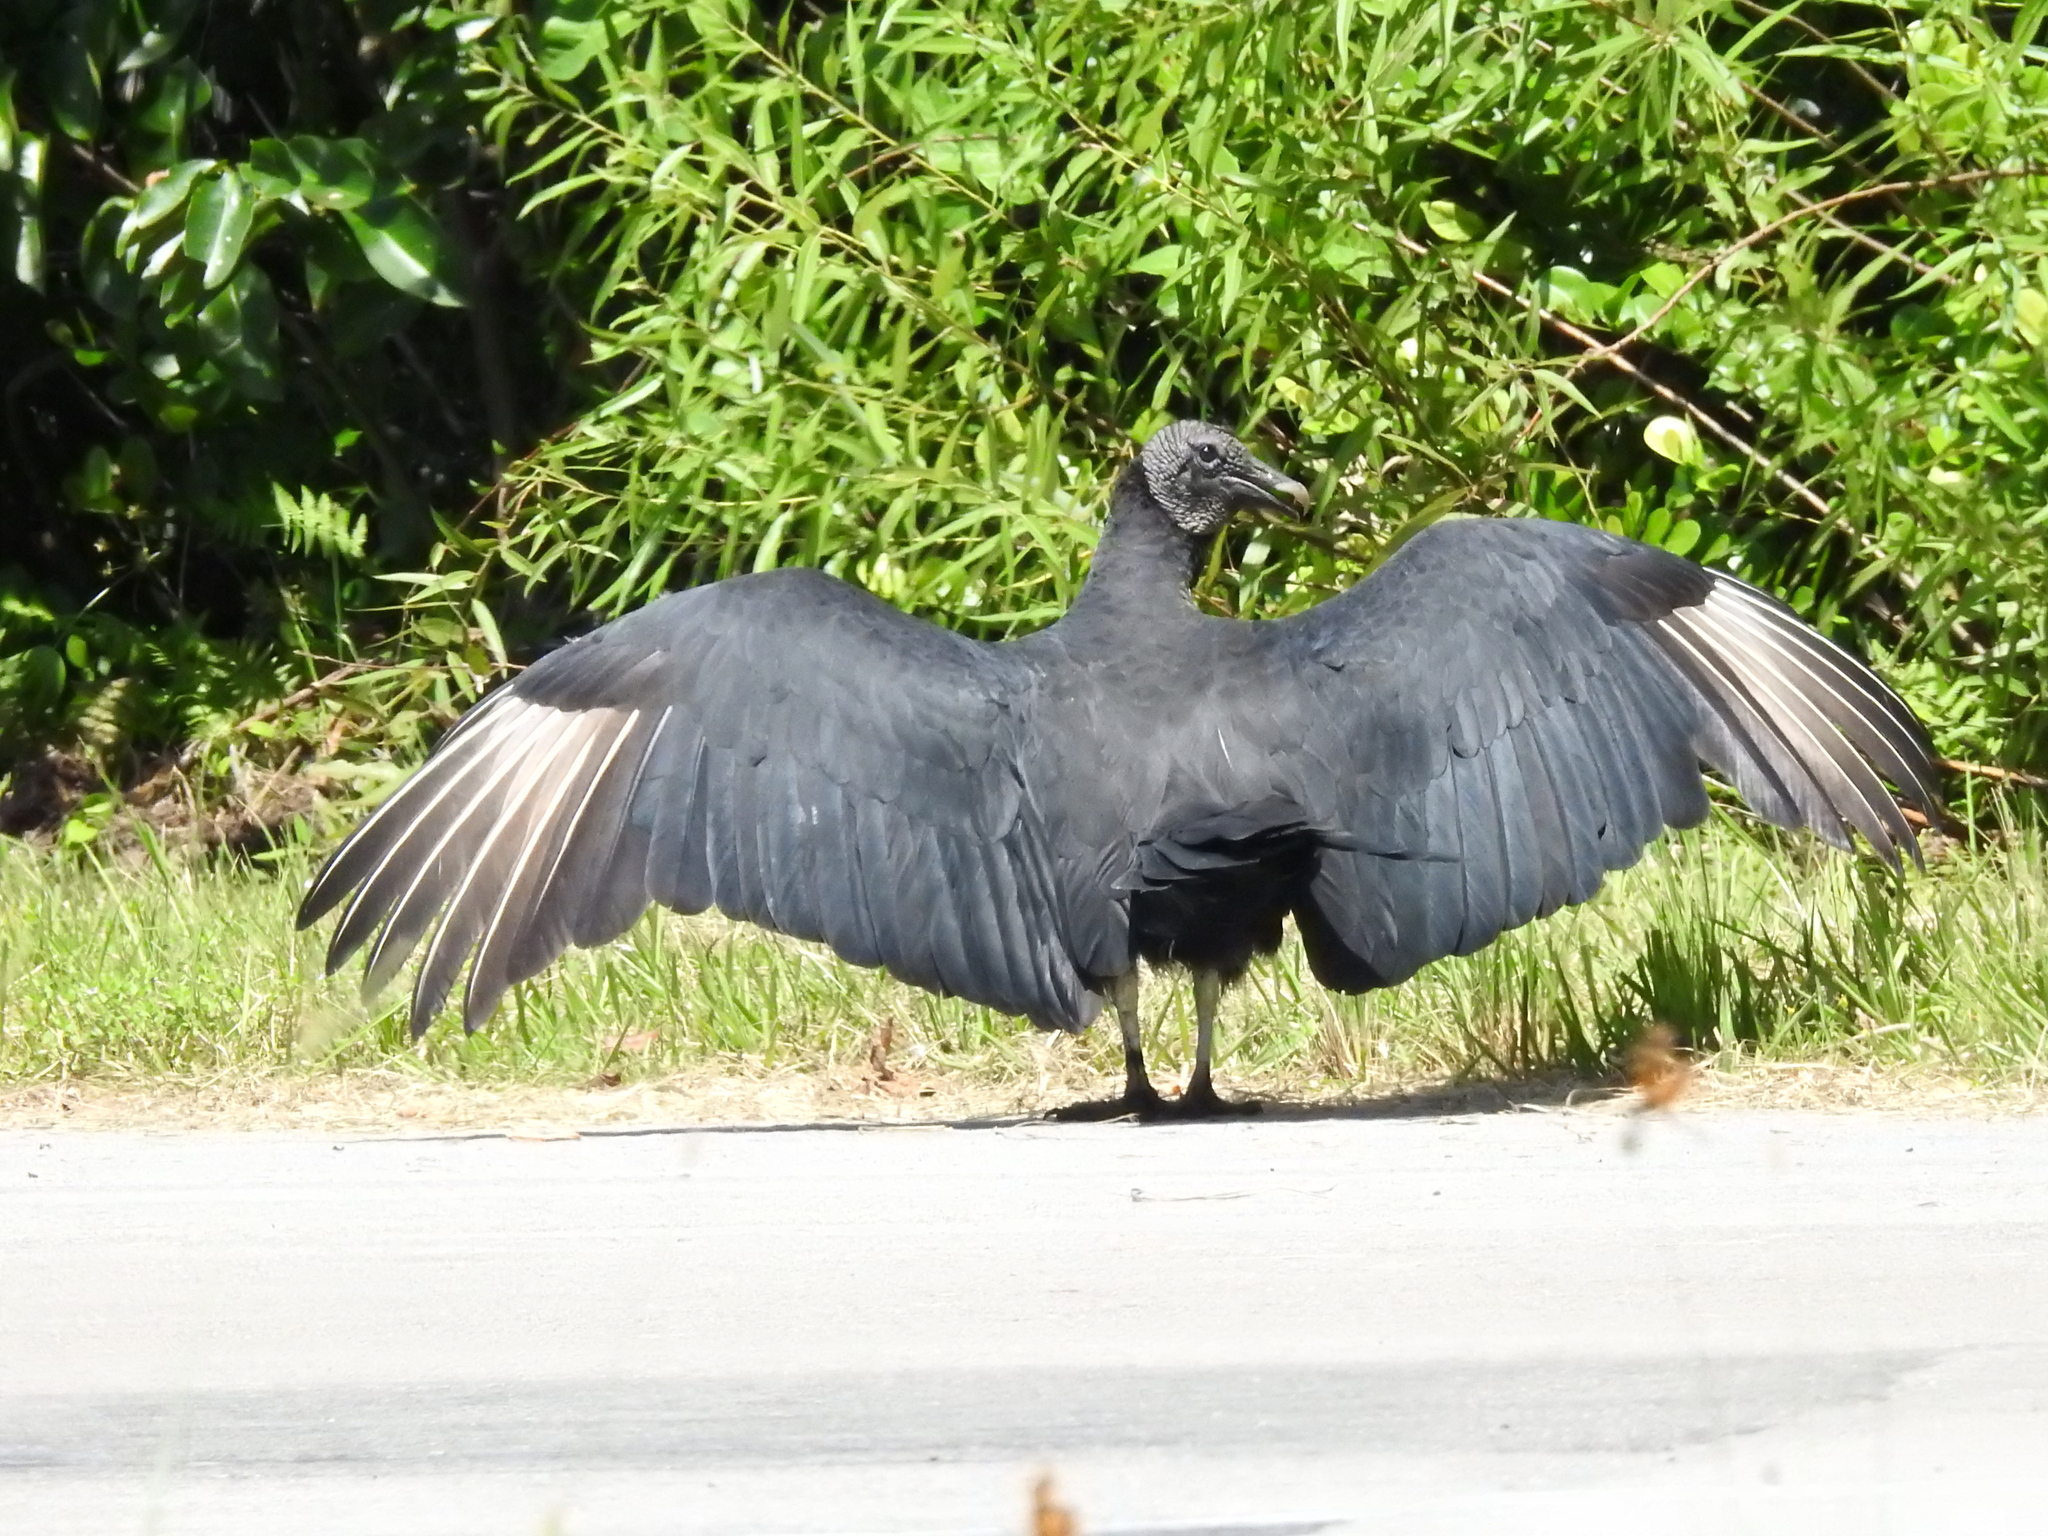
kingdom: Animalia
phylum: Chordata
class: Aves
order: Accipitriformes
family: Cathartidae
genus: Coragyps
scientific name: Coragyps atratus
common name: Black vulture
